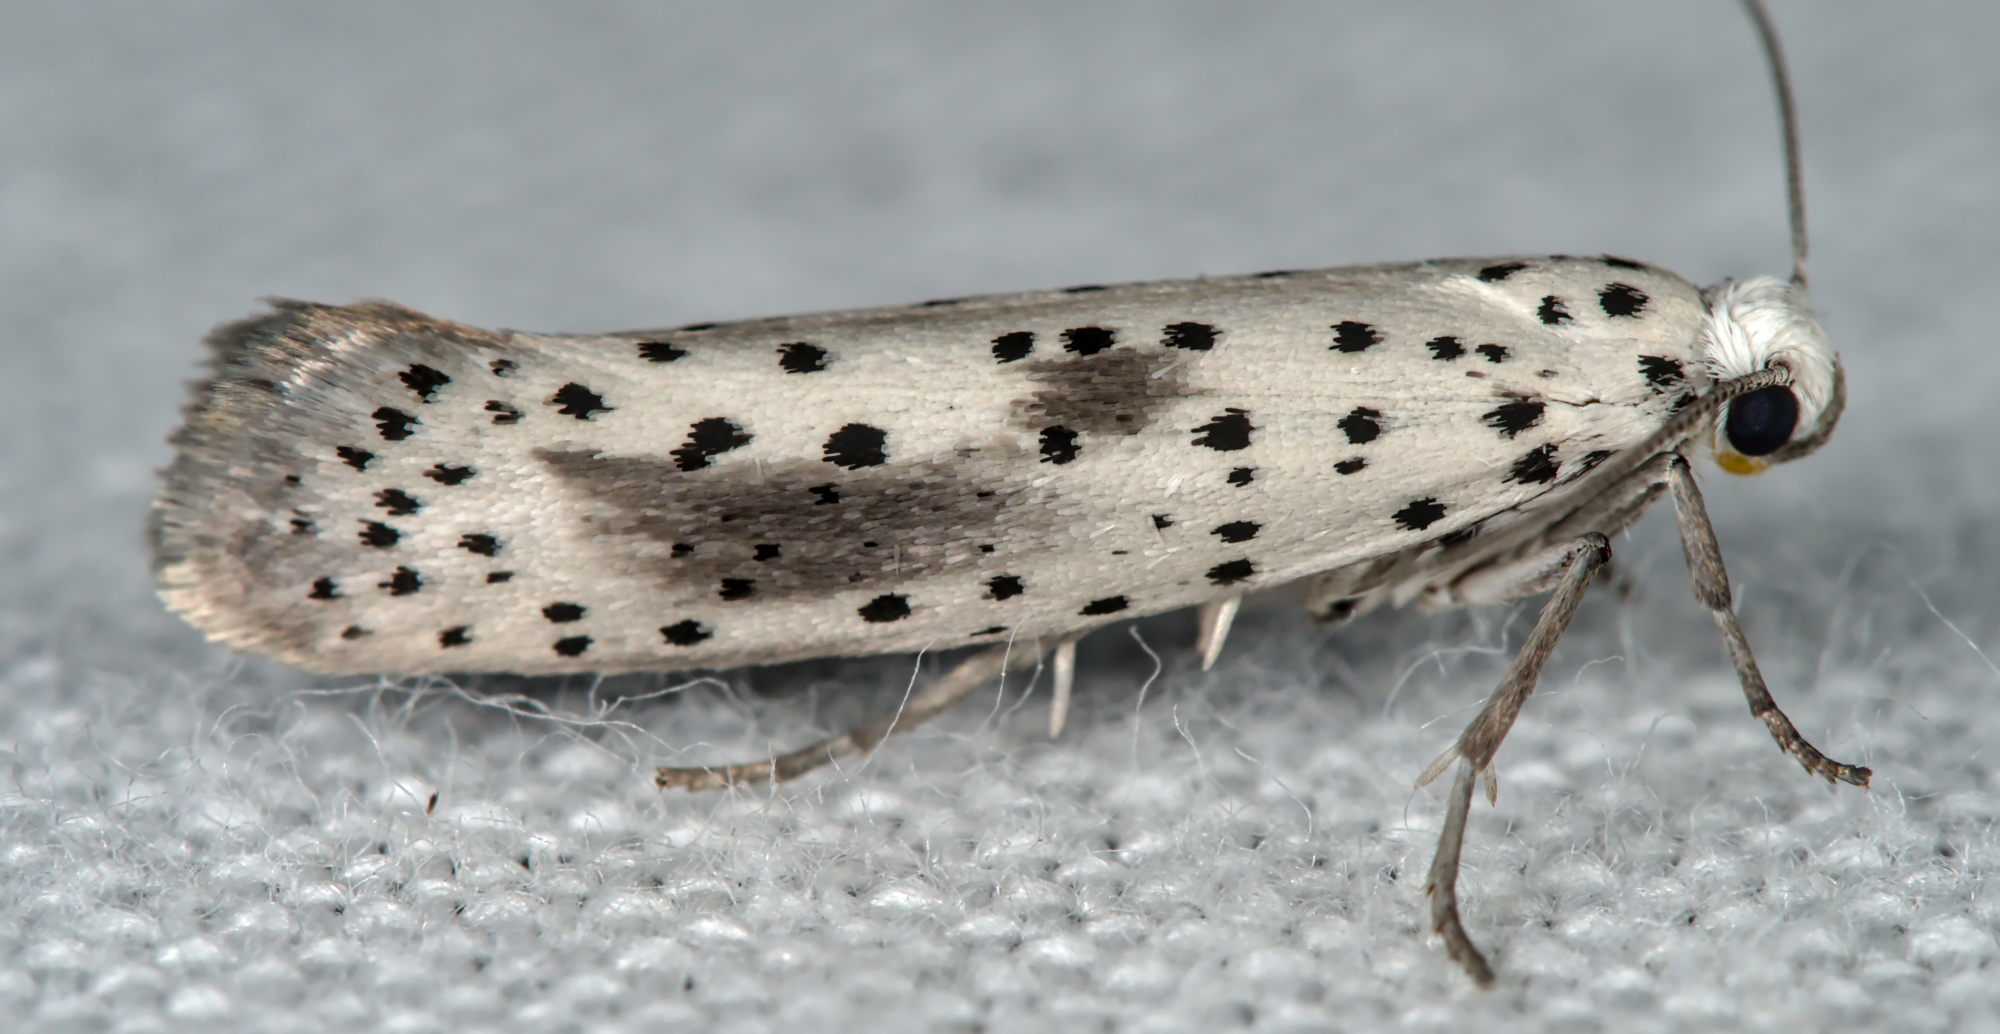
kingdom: Animalia
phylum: Arthropoda
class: Insecta
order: Lepidoptera
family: Yponomeutidae
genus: Yponomeuta
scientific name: Yponomeuta irrorella
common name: Scarce ermine
